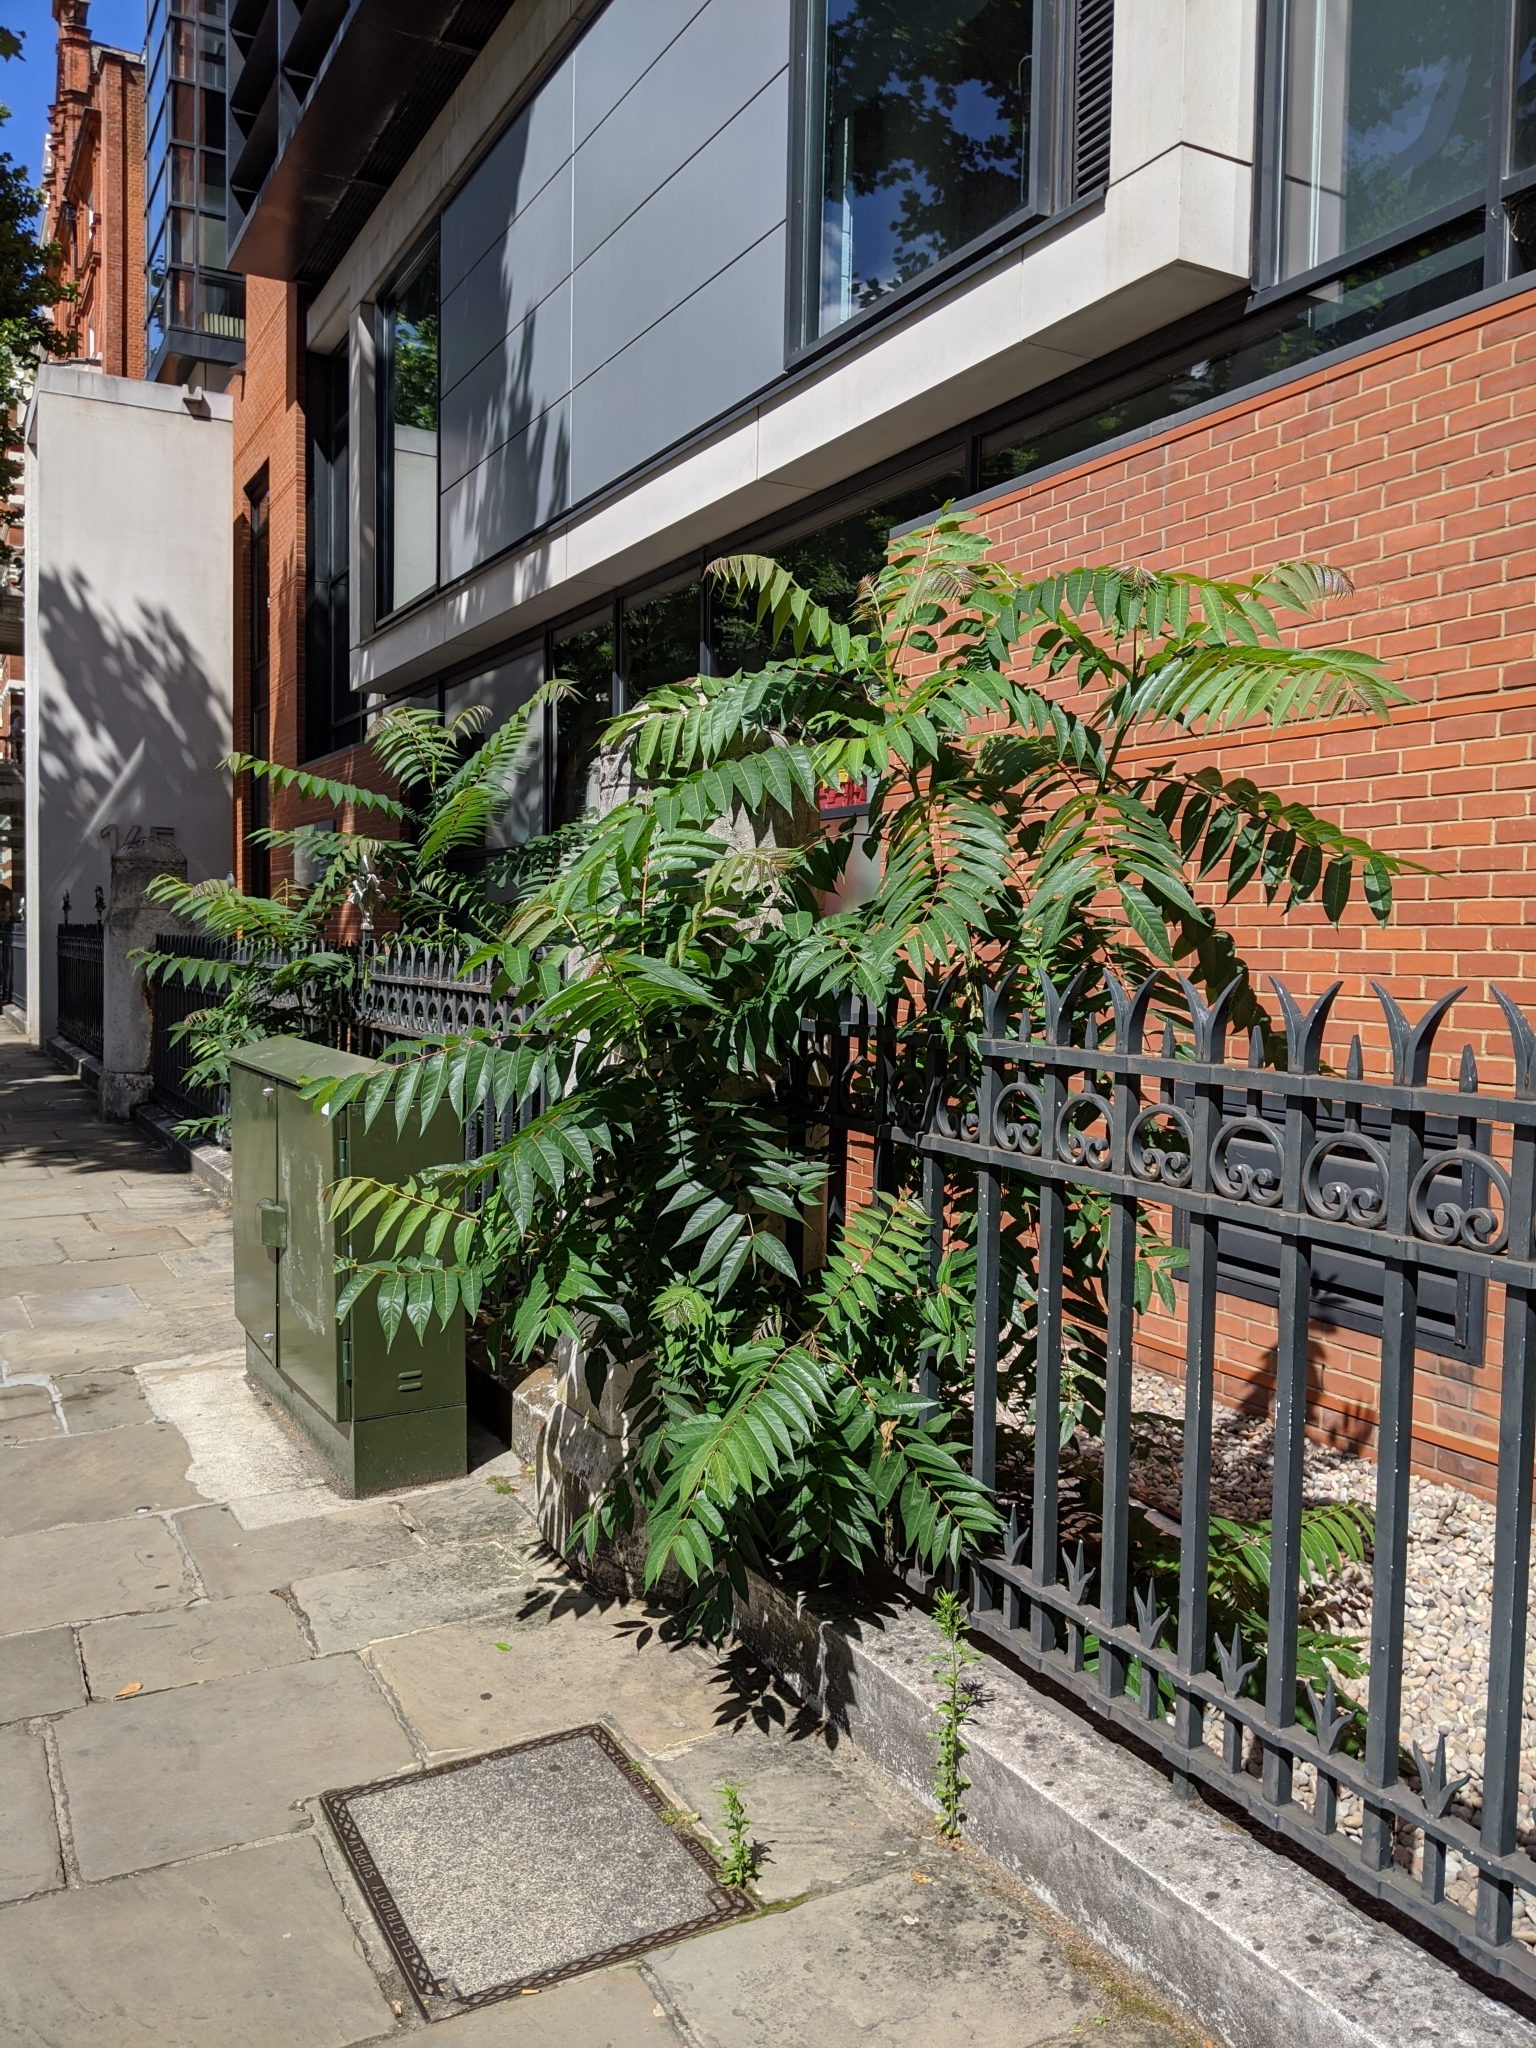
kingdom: Plantae
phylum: Tracheophyta
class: Magnoliopsida
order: Sapindales
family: Simaroubaceae
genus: Ailanthus
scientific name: Ailanthus altissima
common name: Tree-of-heaven
